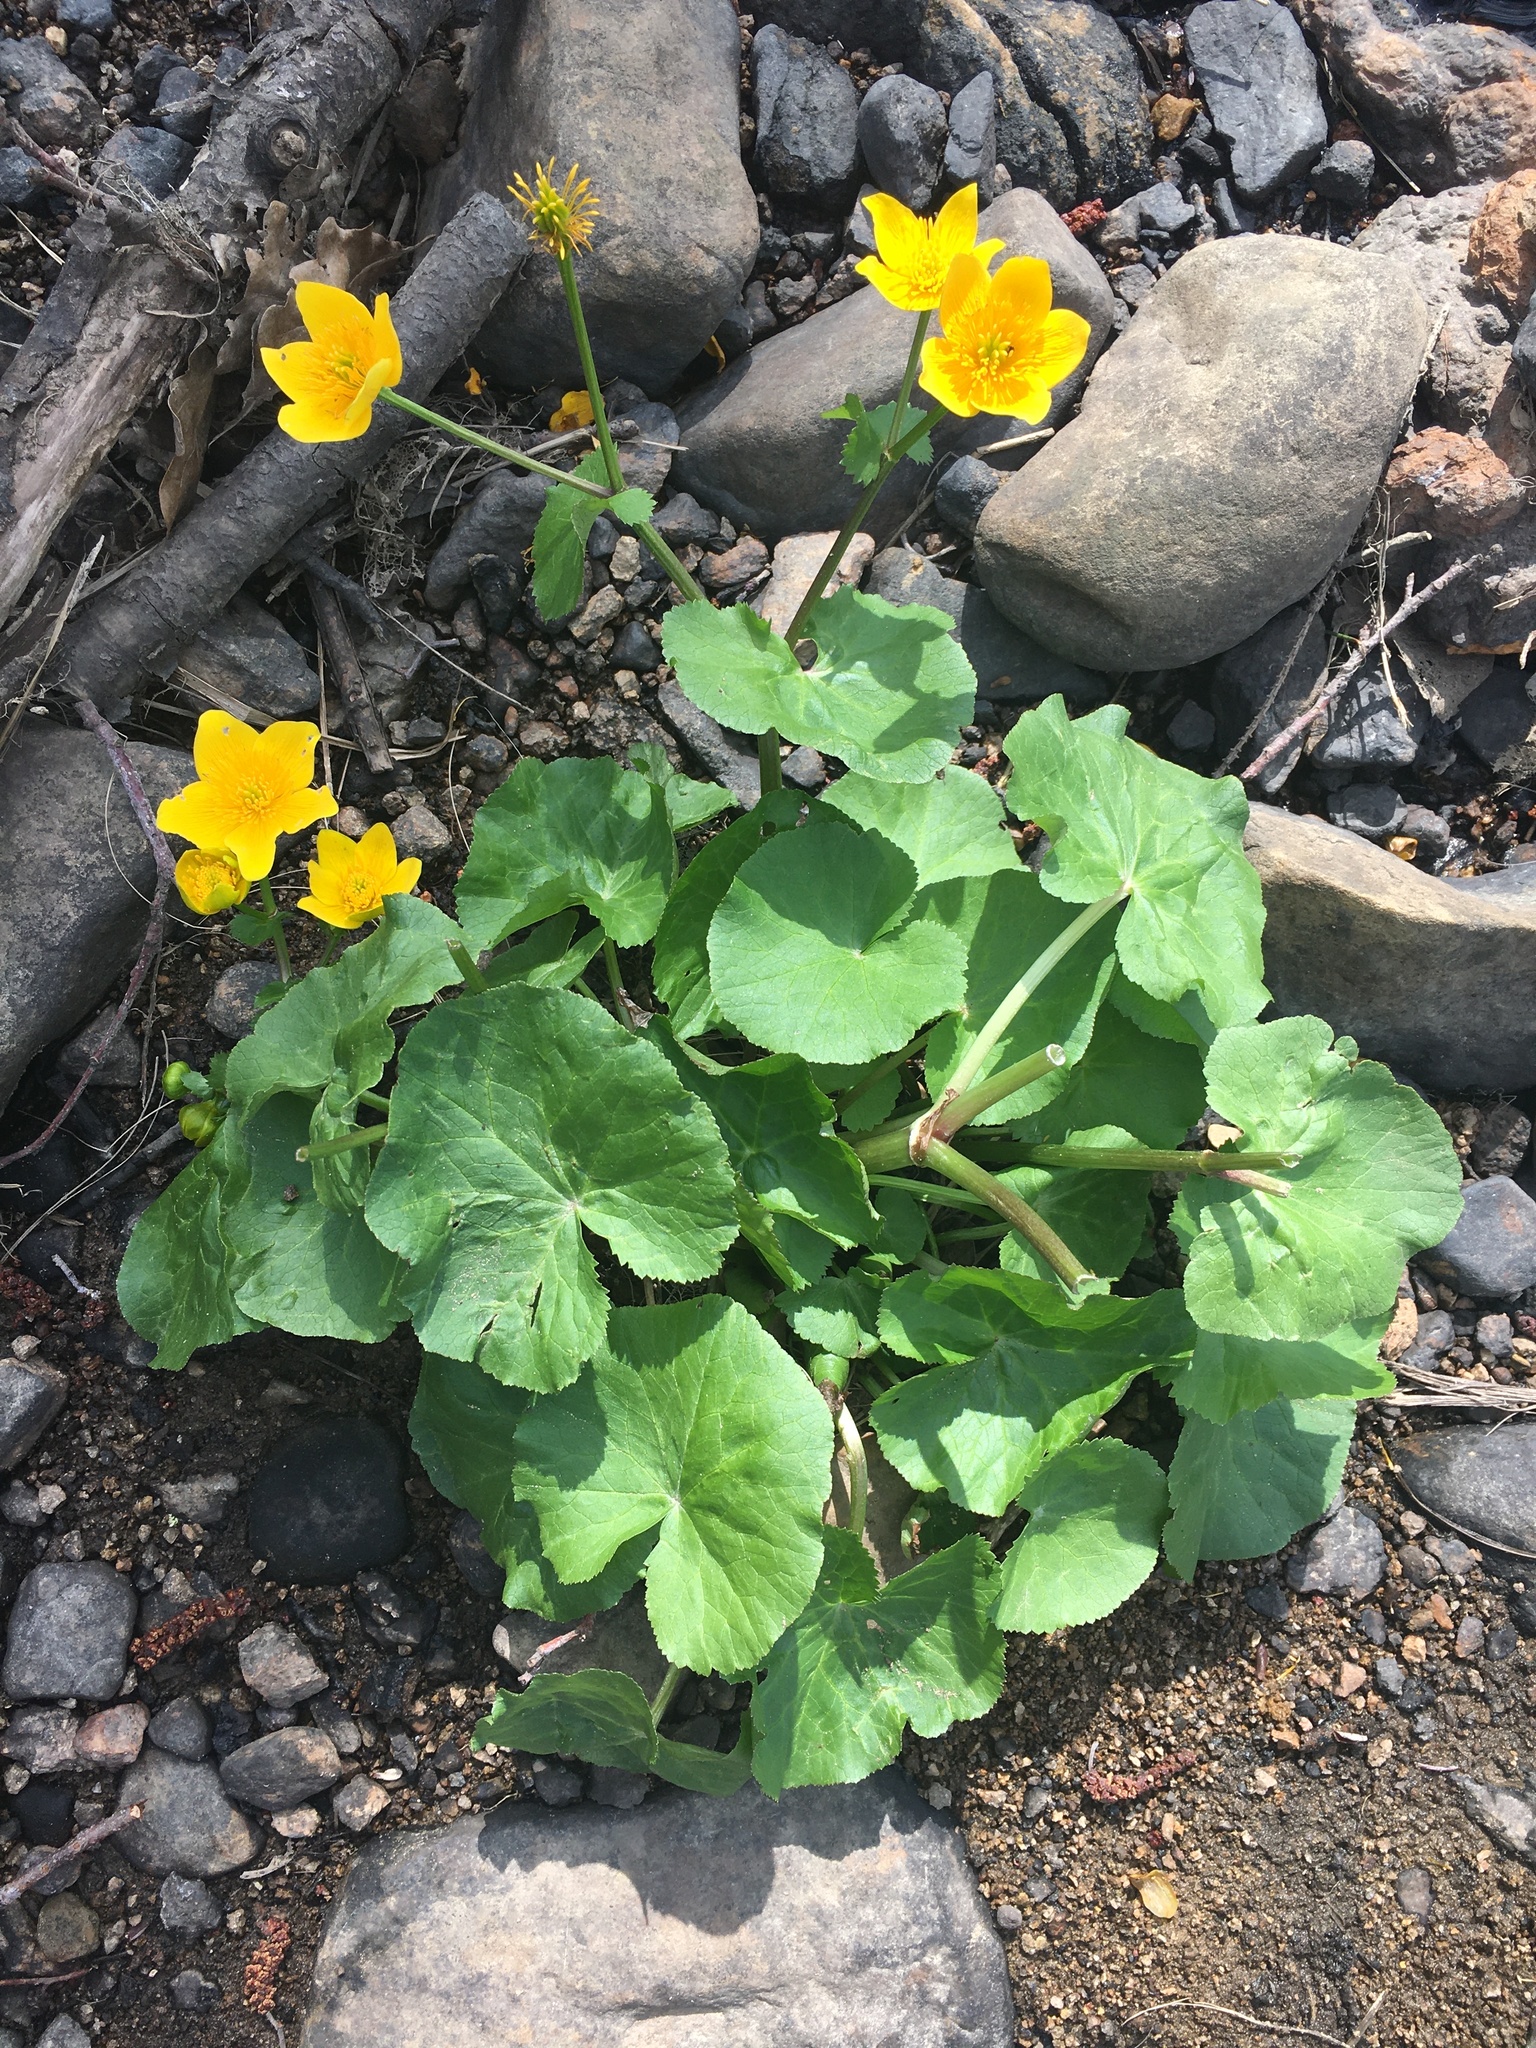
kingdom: Plantae
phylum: Tracheophyta
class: Magnoliopsida
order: Ranunculales
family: Ranunculaceae
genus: Caltha
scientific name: Caltha palustris
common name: Marsh marigold
